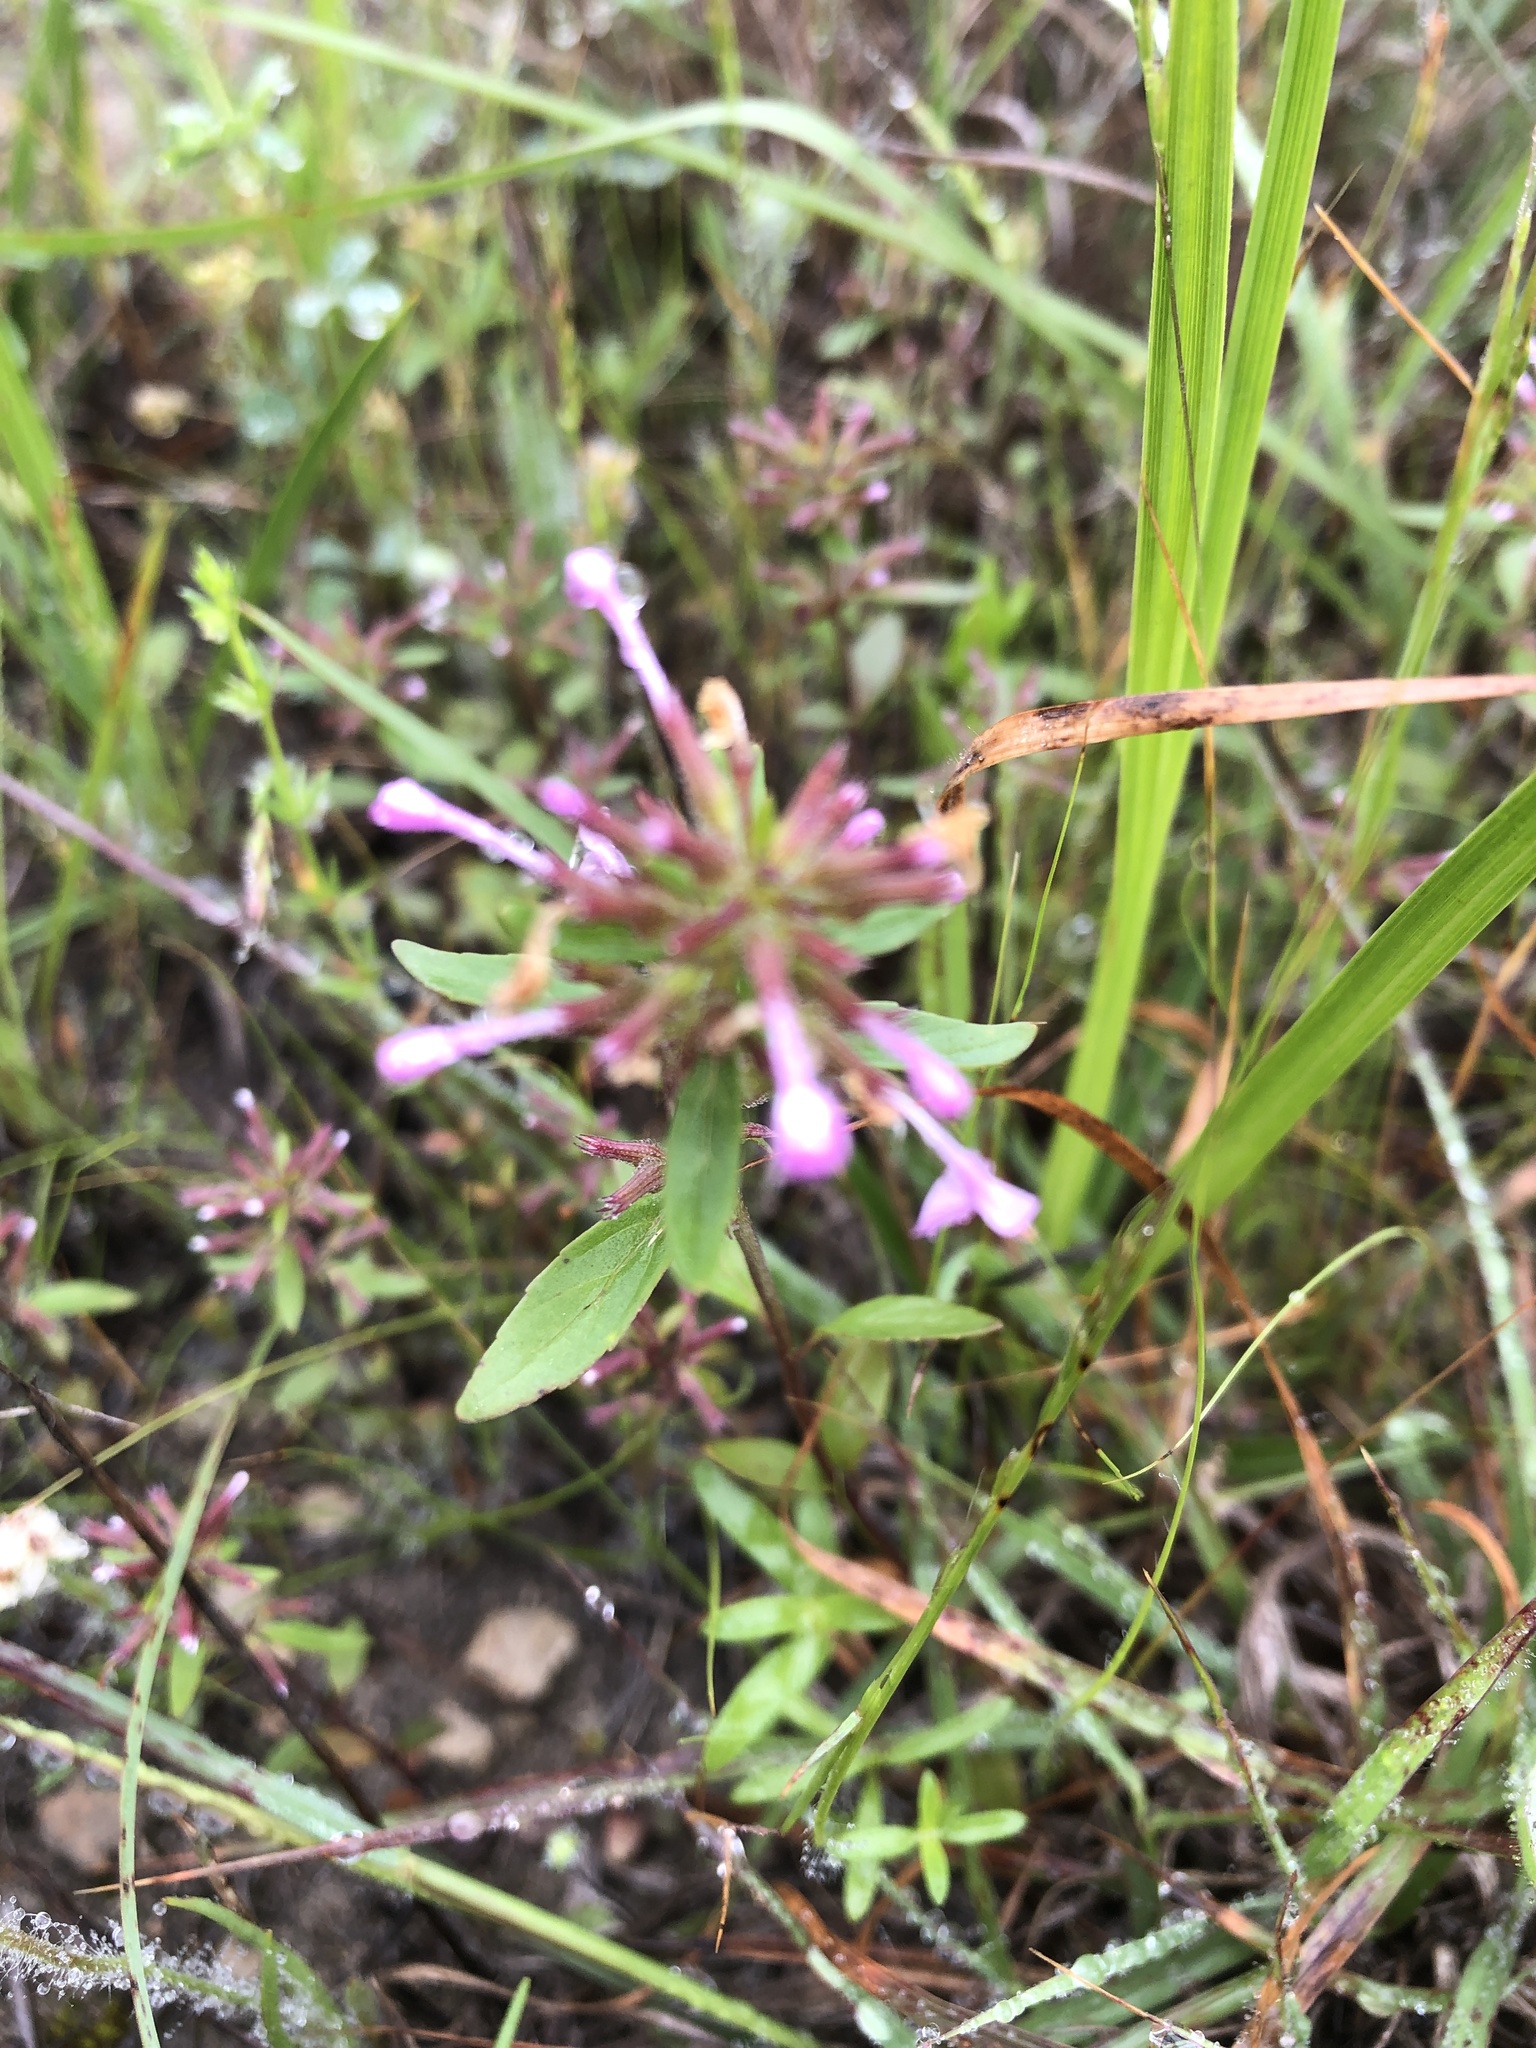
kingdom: Plantae
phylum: Tracheophyta
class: Magnoliopsida
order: Lamiales
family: Lamiaceae
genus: Hedeoma
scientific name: Hedeoma acinoides
